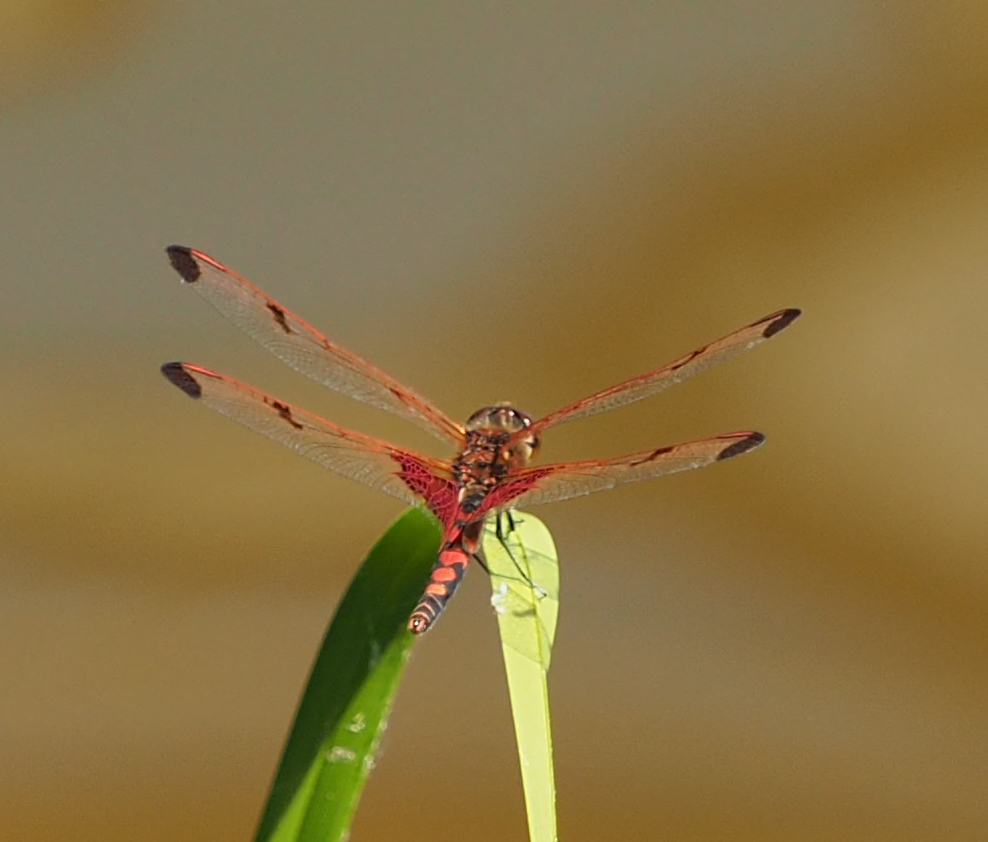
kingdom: Animalia
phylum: Arthropoda
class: Insecta
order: Odonata
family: Libellulidae
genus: Celithemis
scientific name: Celithemis elisa
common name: Calico pennant
